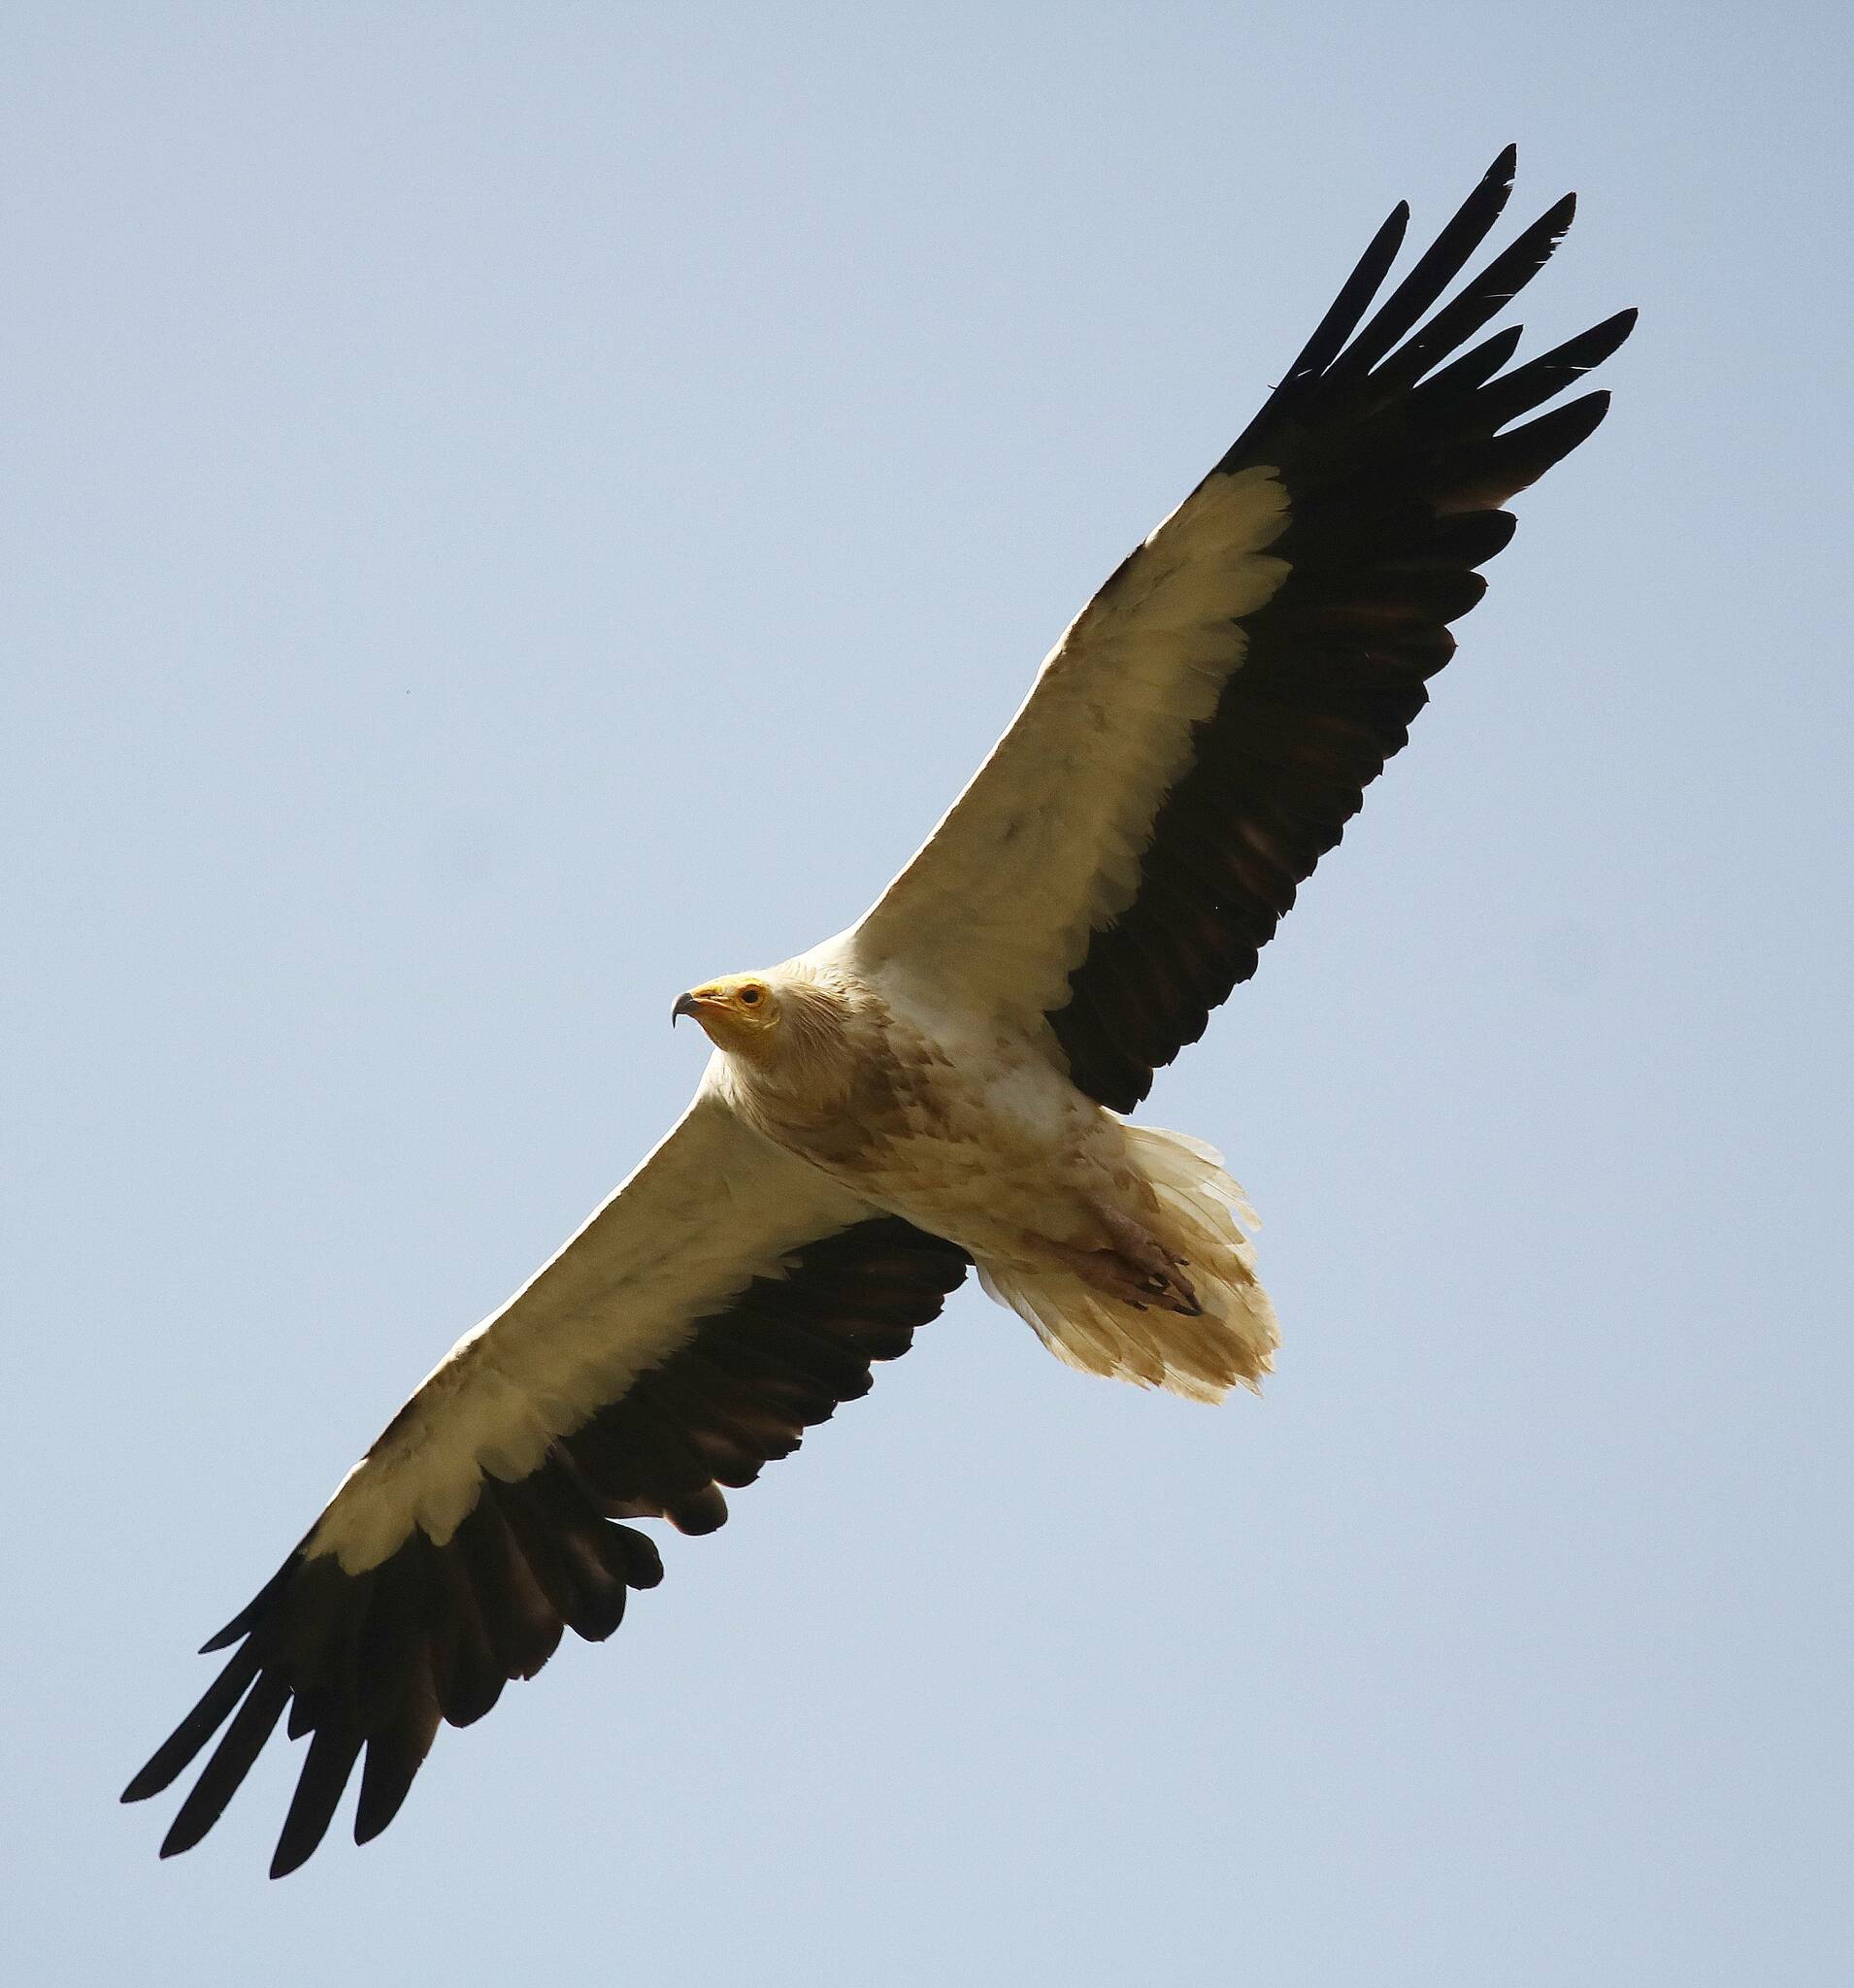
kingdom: Animalia
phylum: Chordata
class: Aves
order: Accipitriformes
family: Accipitridae
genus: Neophron
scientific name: Neophron percnopterus
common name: Egyptian vulture
